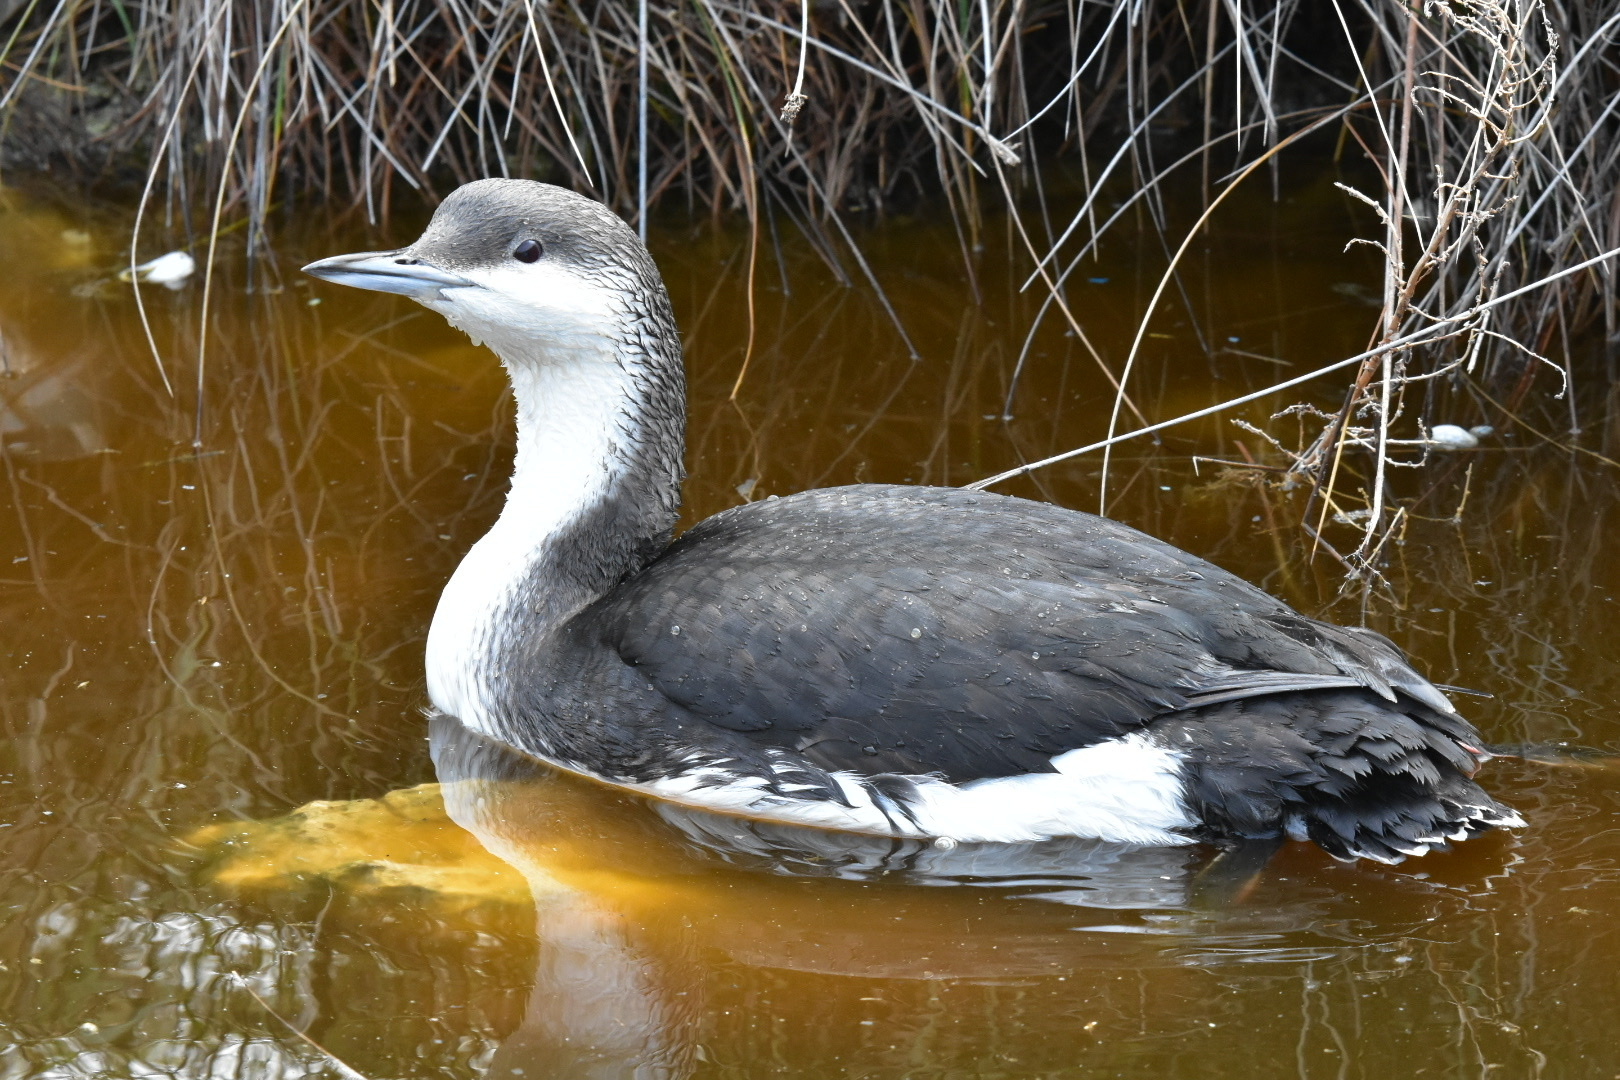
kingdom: Animalia
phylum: Chordata
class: Aves
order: Gaviiformes
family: Gaviidae
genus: Gavia
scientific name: Gavia arctica
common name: Black-throated loon
